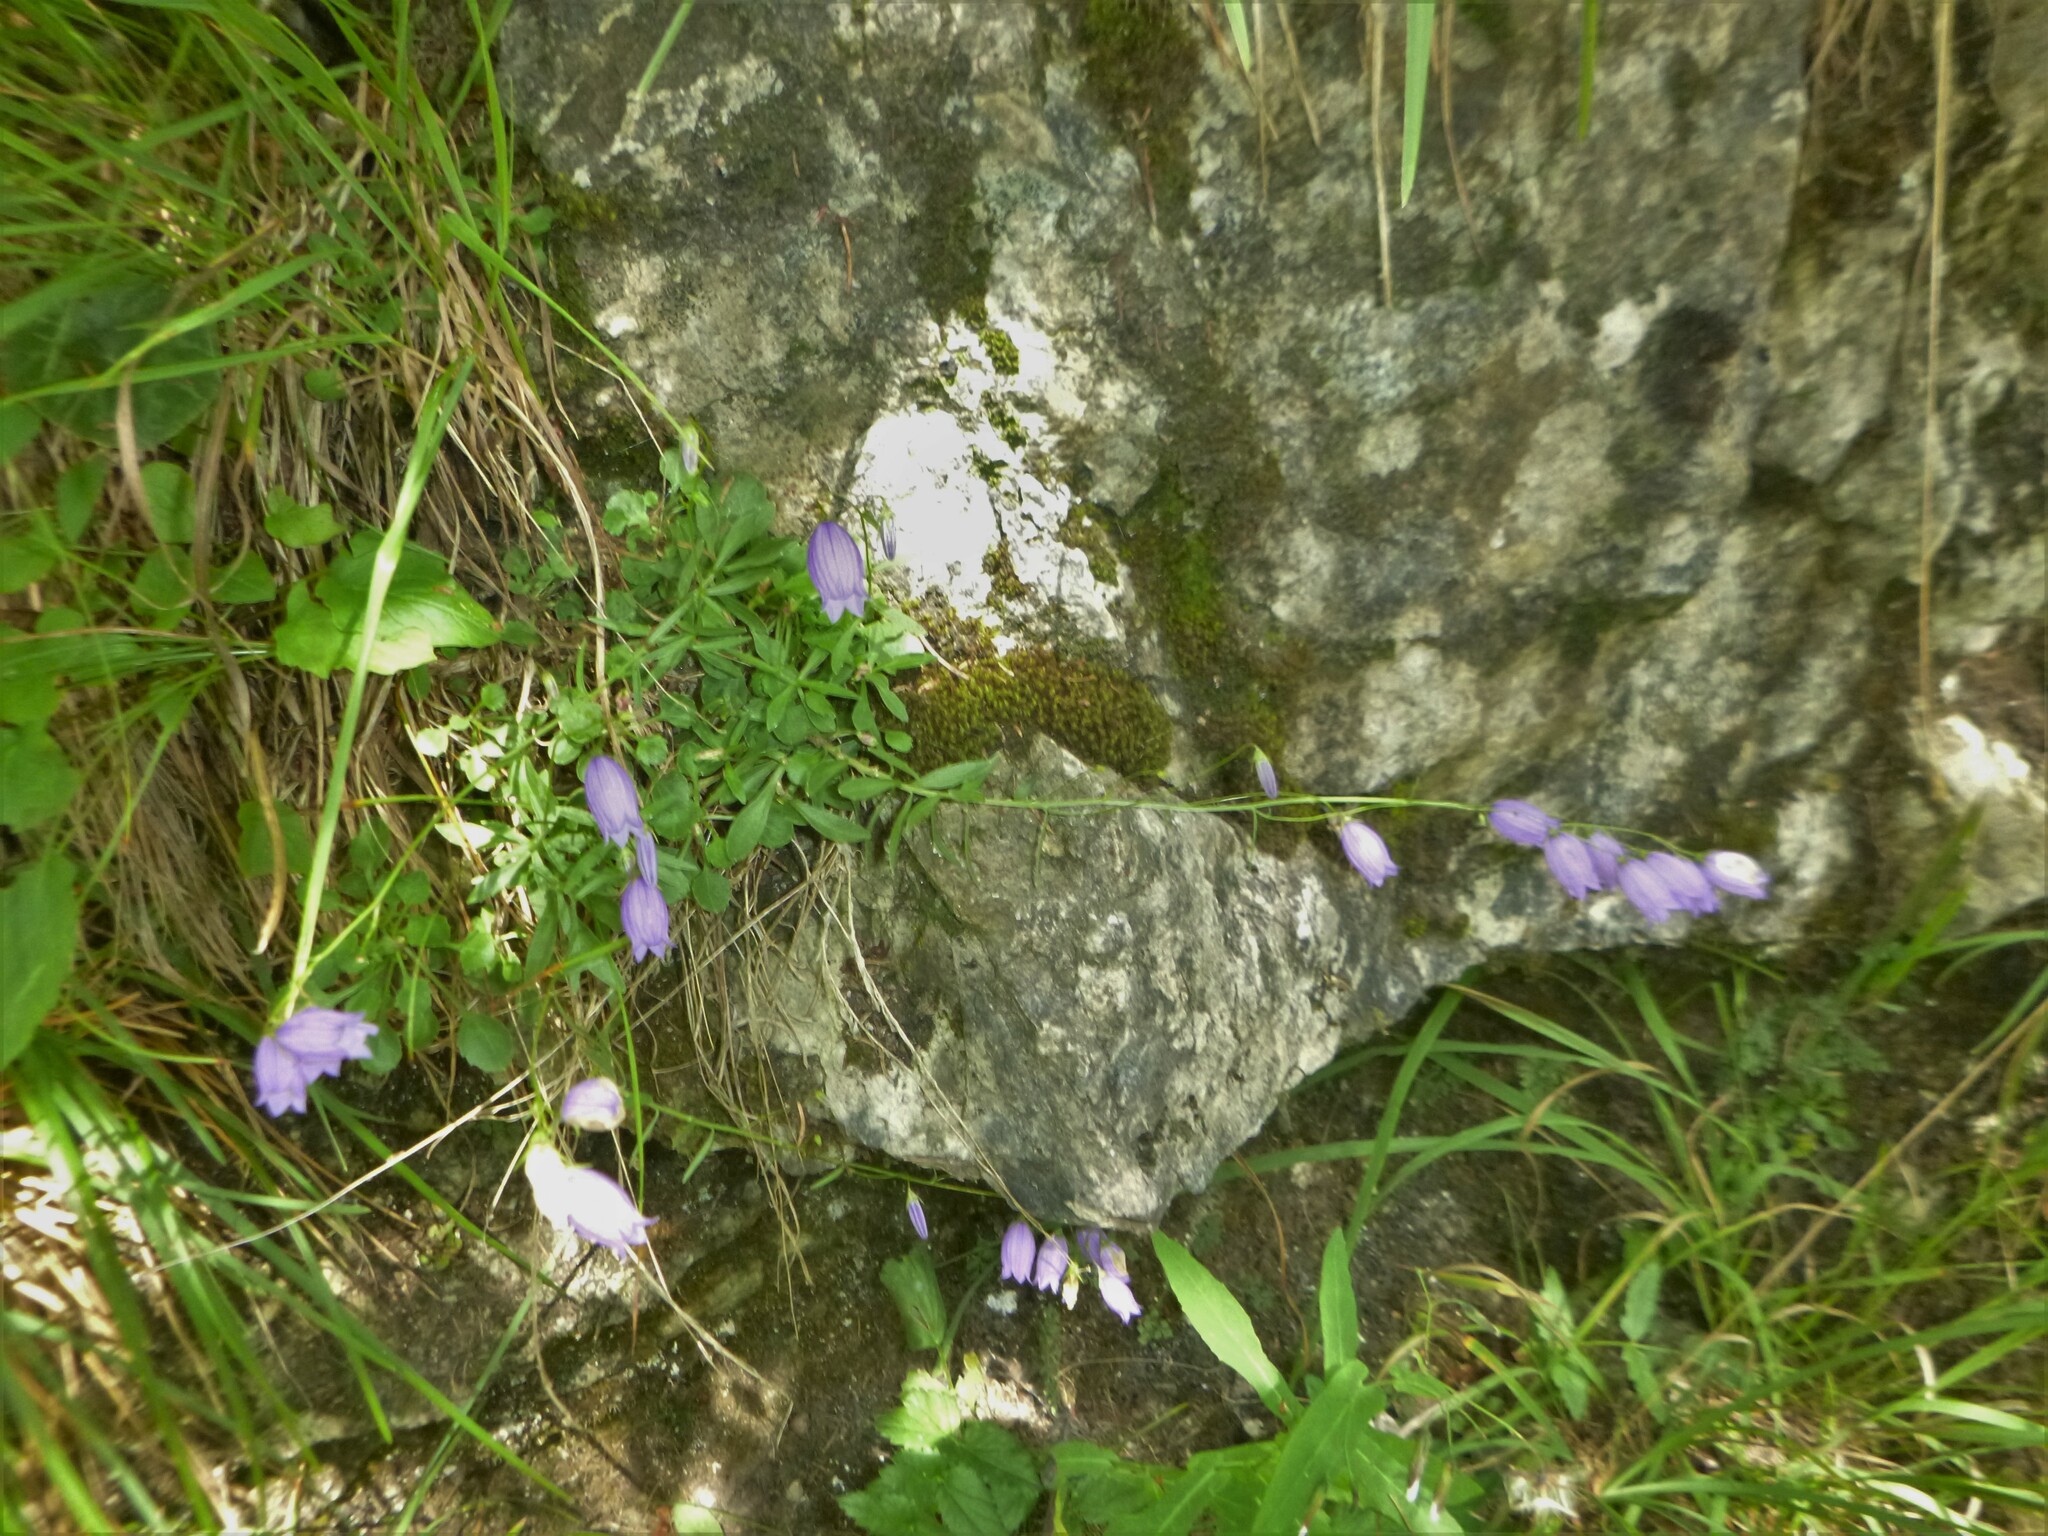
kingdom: Plantae
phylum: Tracheophyta
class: Magnoliopsida
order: Asterales
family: Campanulaceae
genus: Campanula
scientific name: Campanula cespitosa
